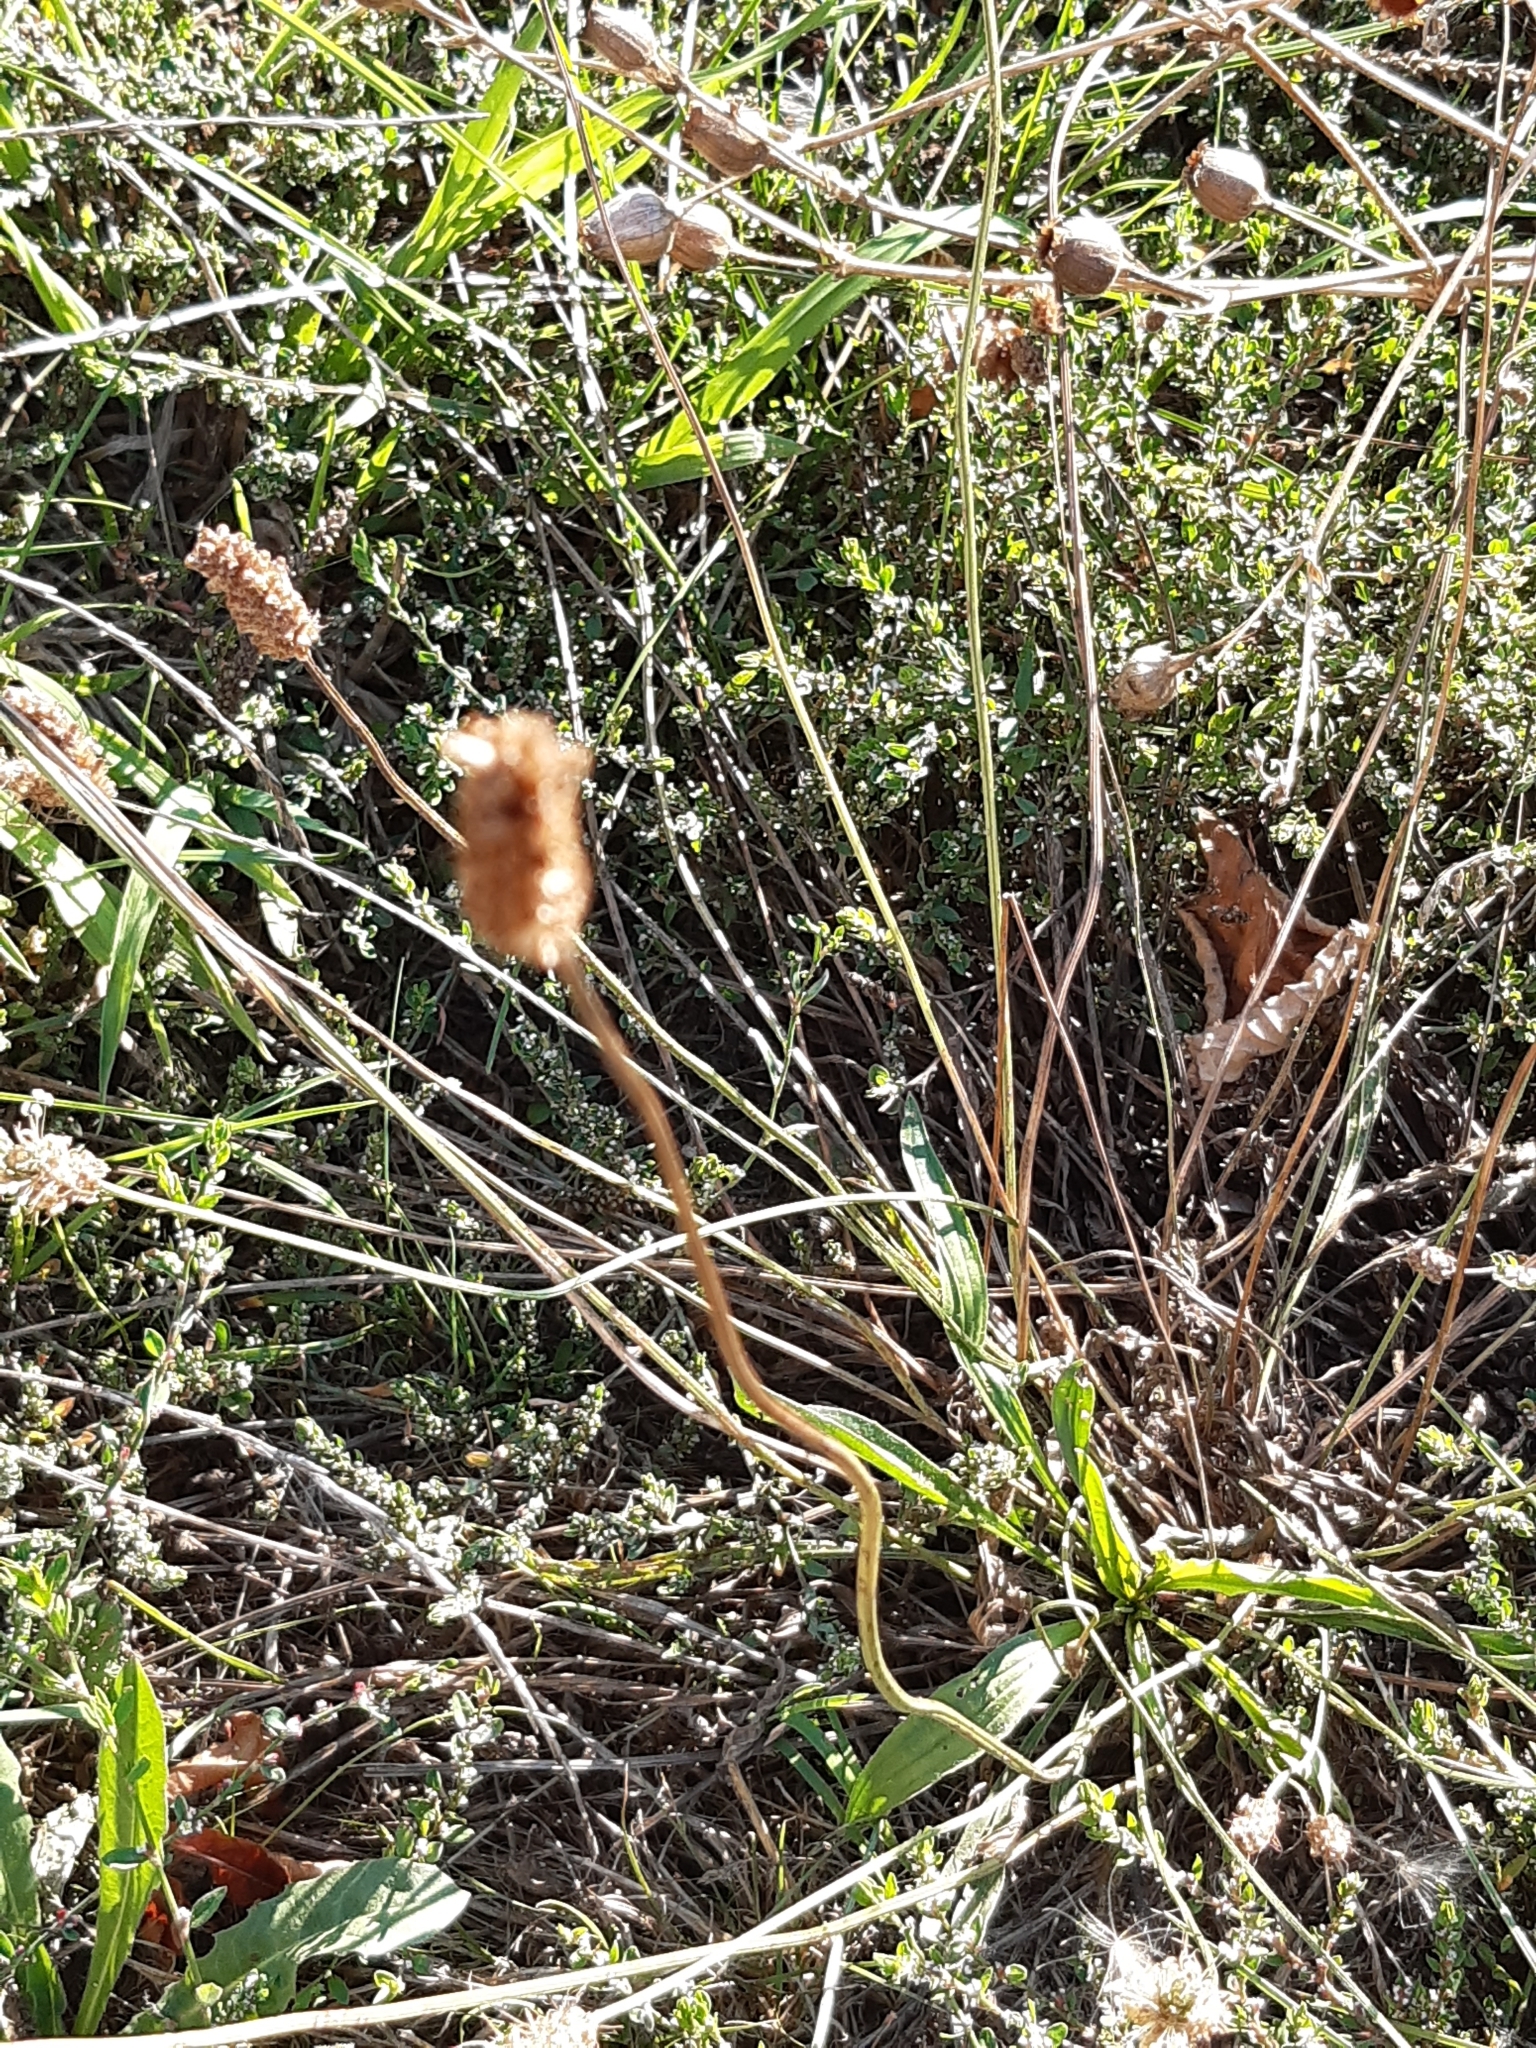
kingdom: Plantae
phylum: Tracheophyta
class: Magnoliopsida
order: Lamiales
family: Plantaginaceae
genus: Plantago
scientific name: Plantago lanceolata
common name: Ribwort plantain
